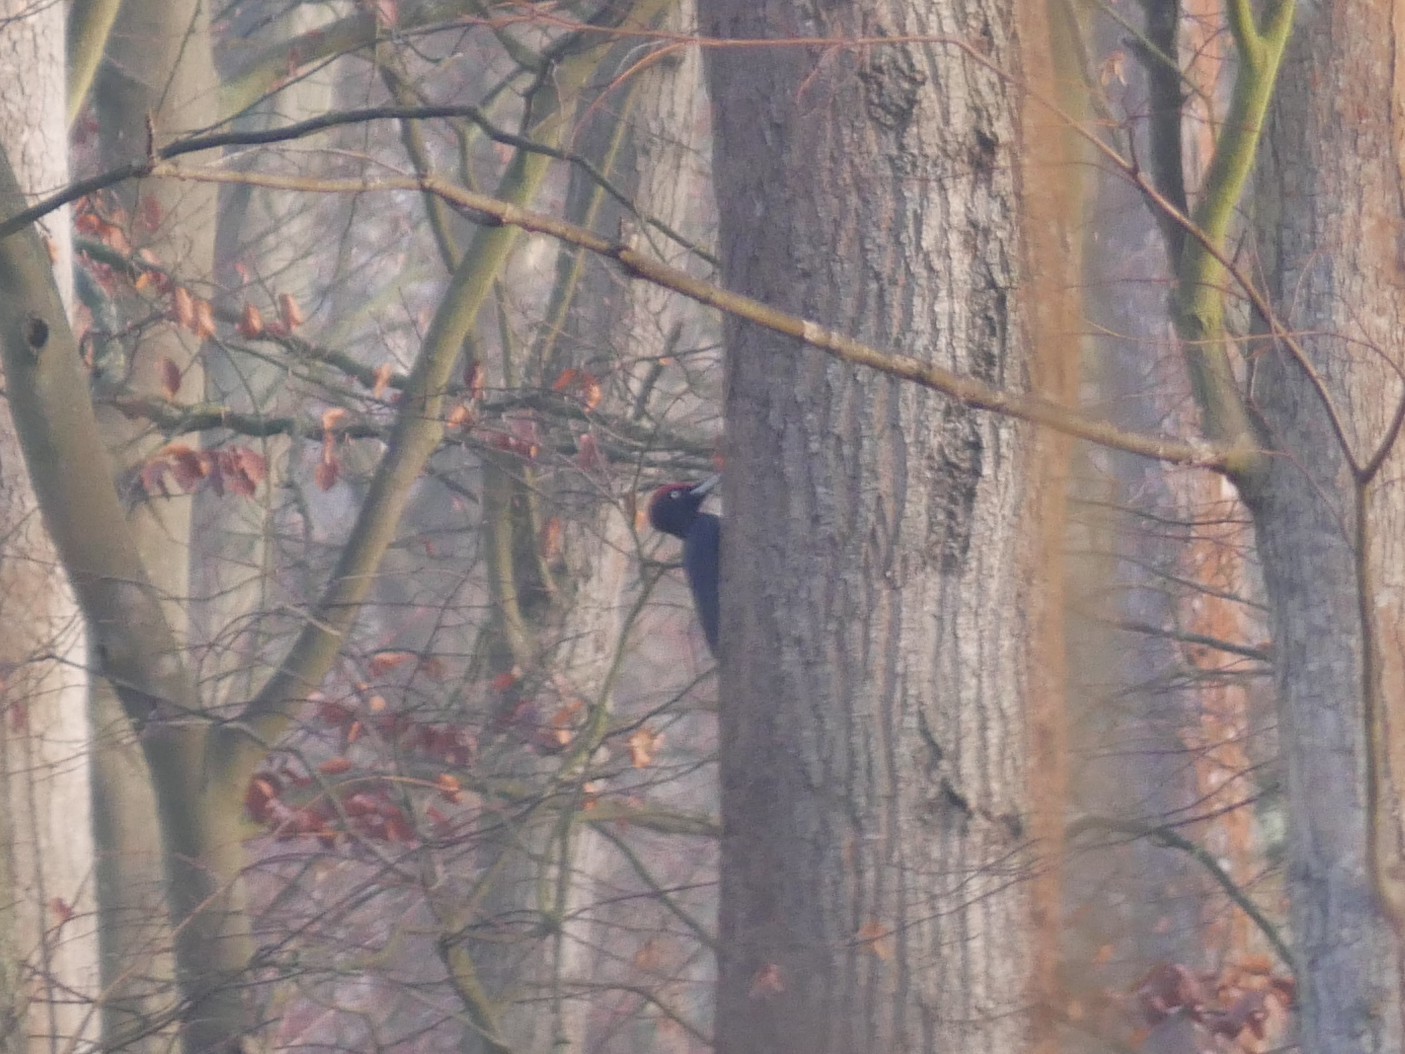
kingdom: Animalia
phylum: Chordata
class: Aves
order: Piciformes
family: Picidae
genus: Dryocopus
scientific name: Dryocopus martius
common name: Black woodpecker
